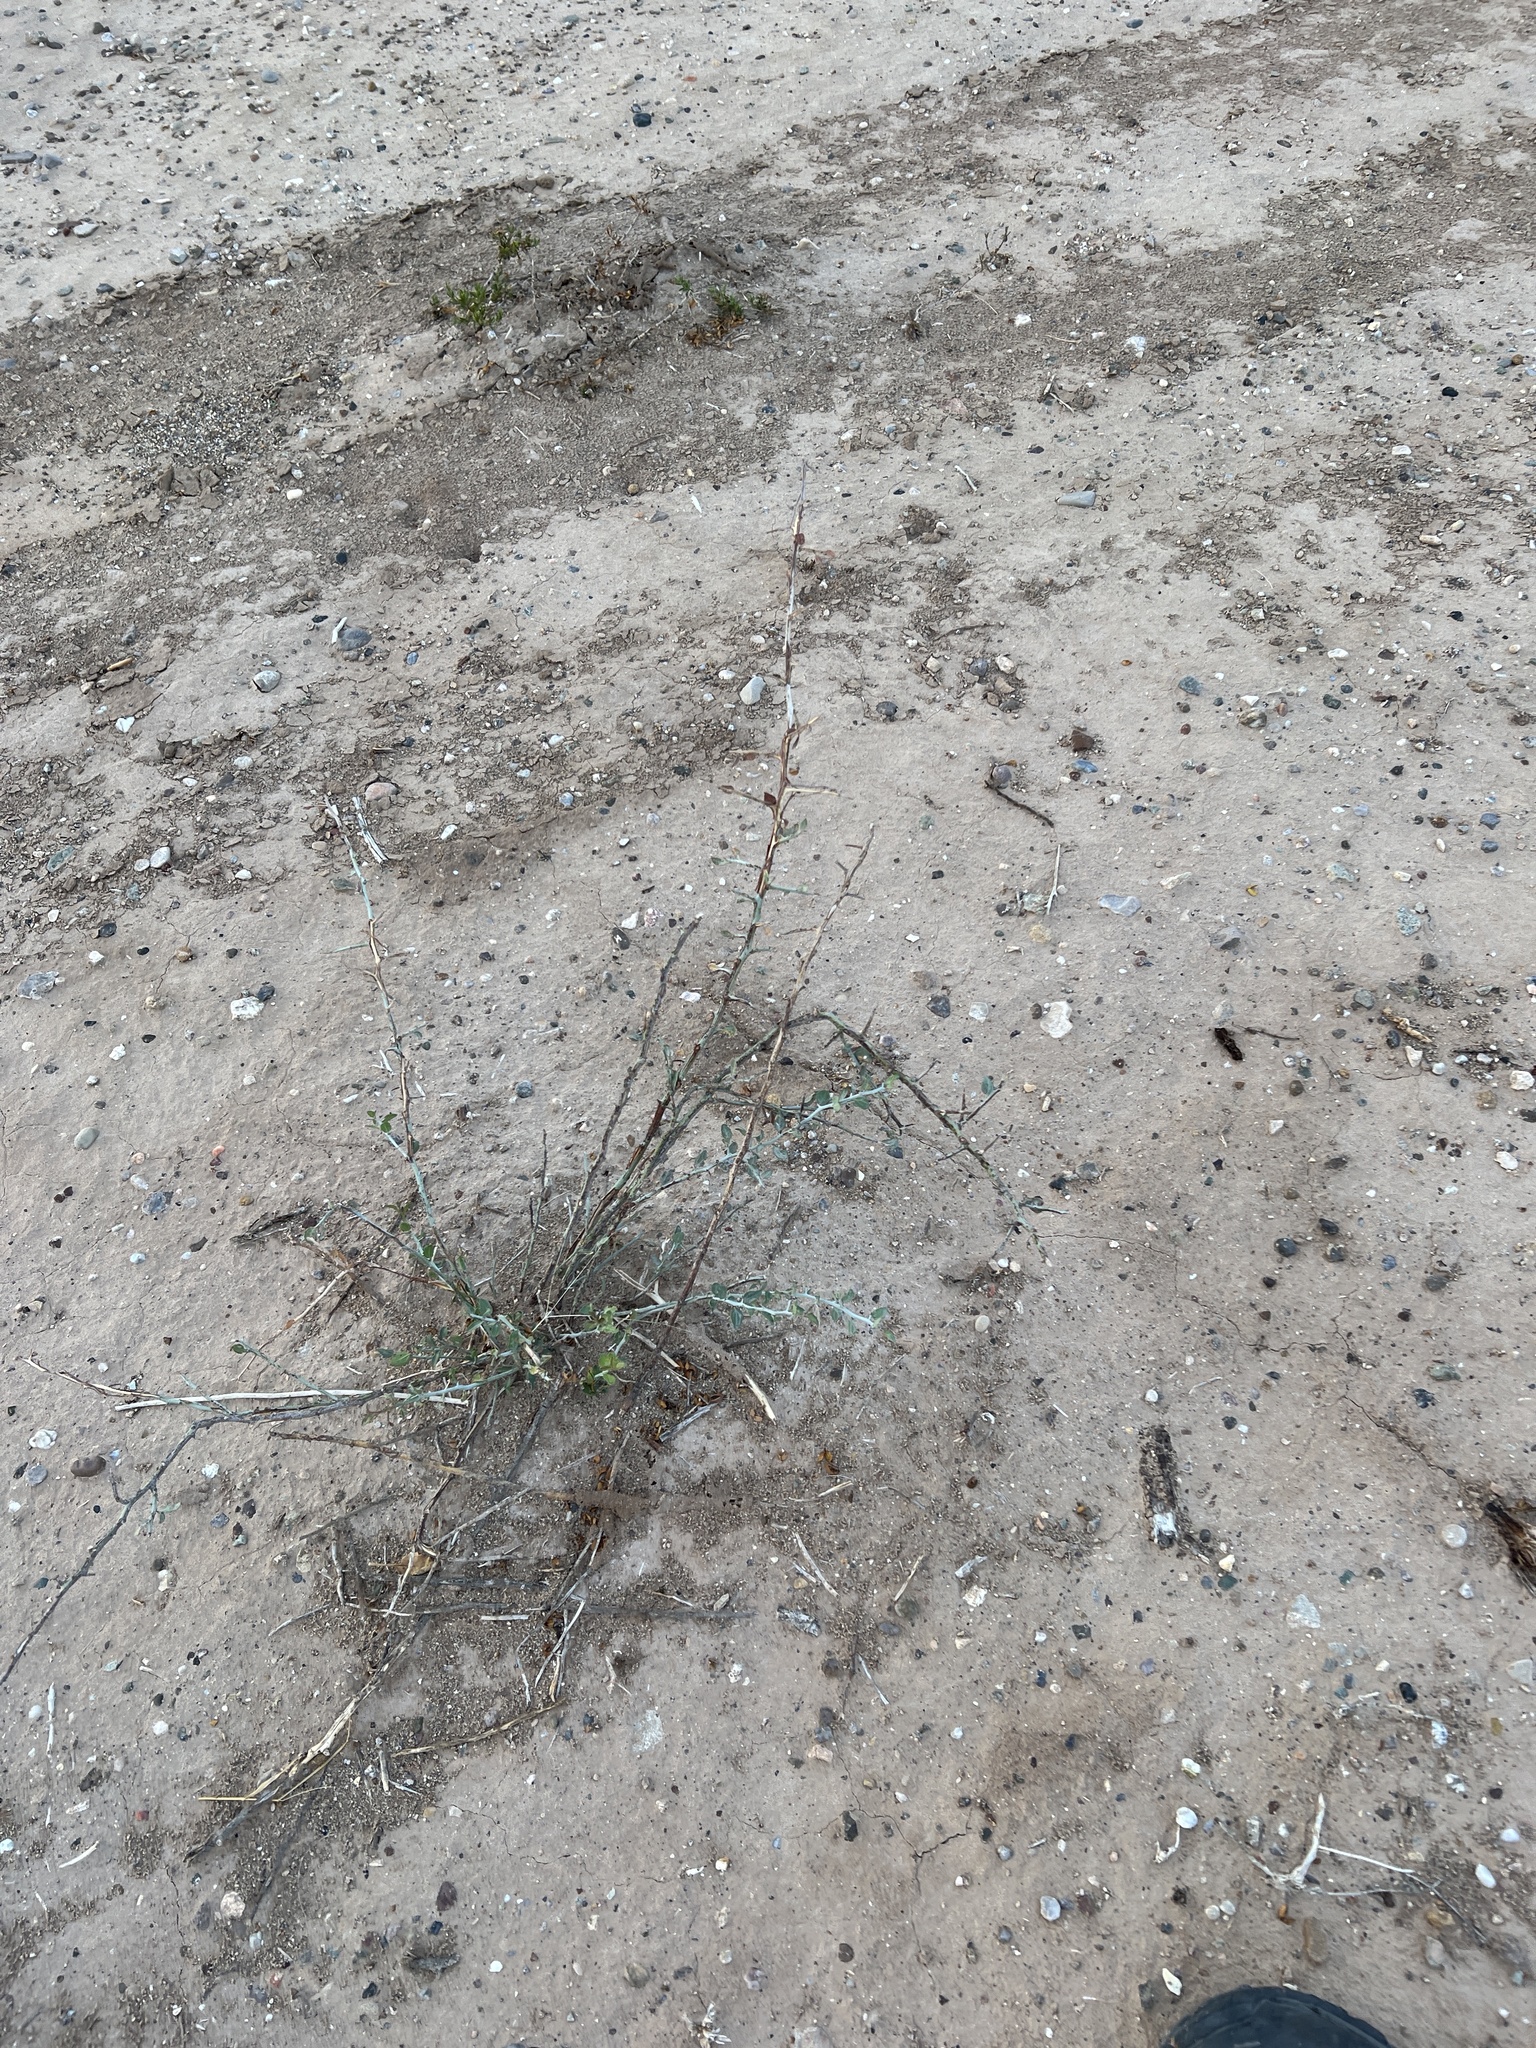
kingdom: Plantae
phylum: Tracheophyta
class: Magnoliopsida
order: Rosales
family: Rhamnaceae
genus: Sarcomphalus
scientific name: Sarcomphalus obtusifolius
